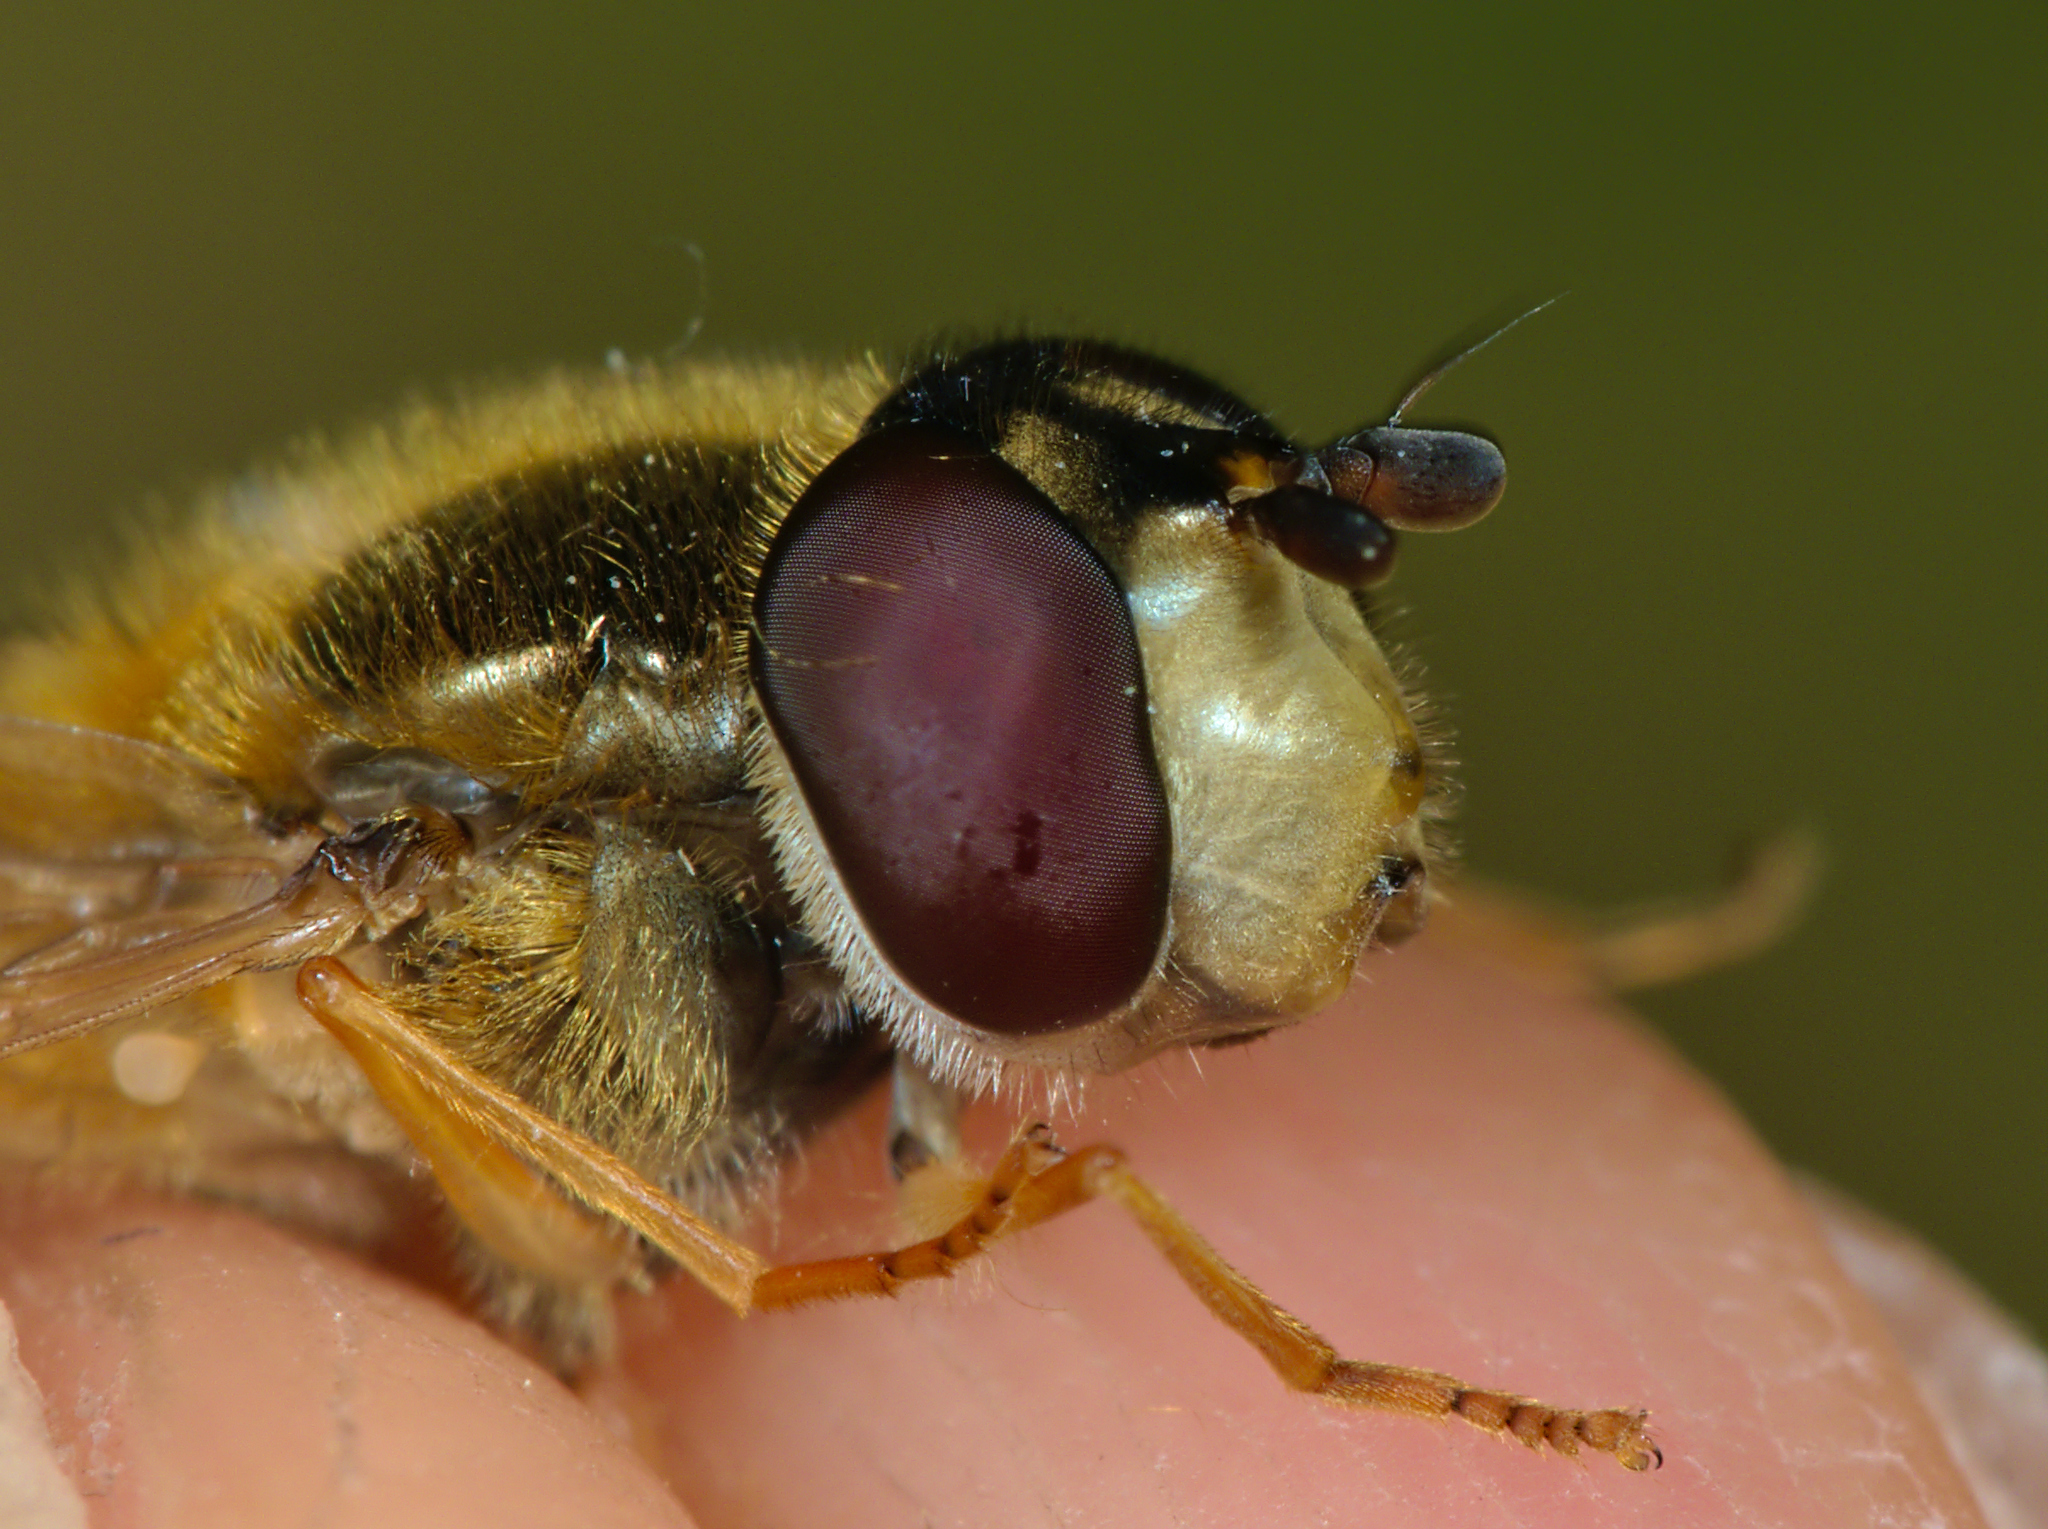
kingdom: Animalia
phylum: Arthropoda
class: Insecta
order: Diptera
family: Syrphidae
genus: Epistrophe
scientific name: Epistrophe eligans
